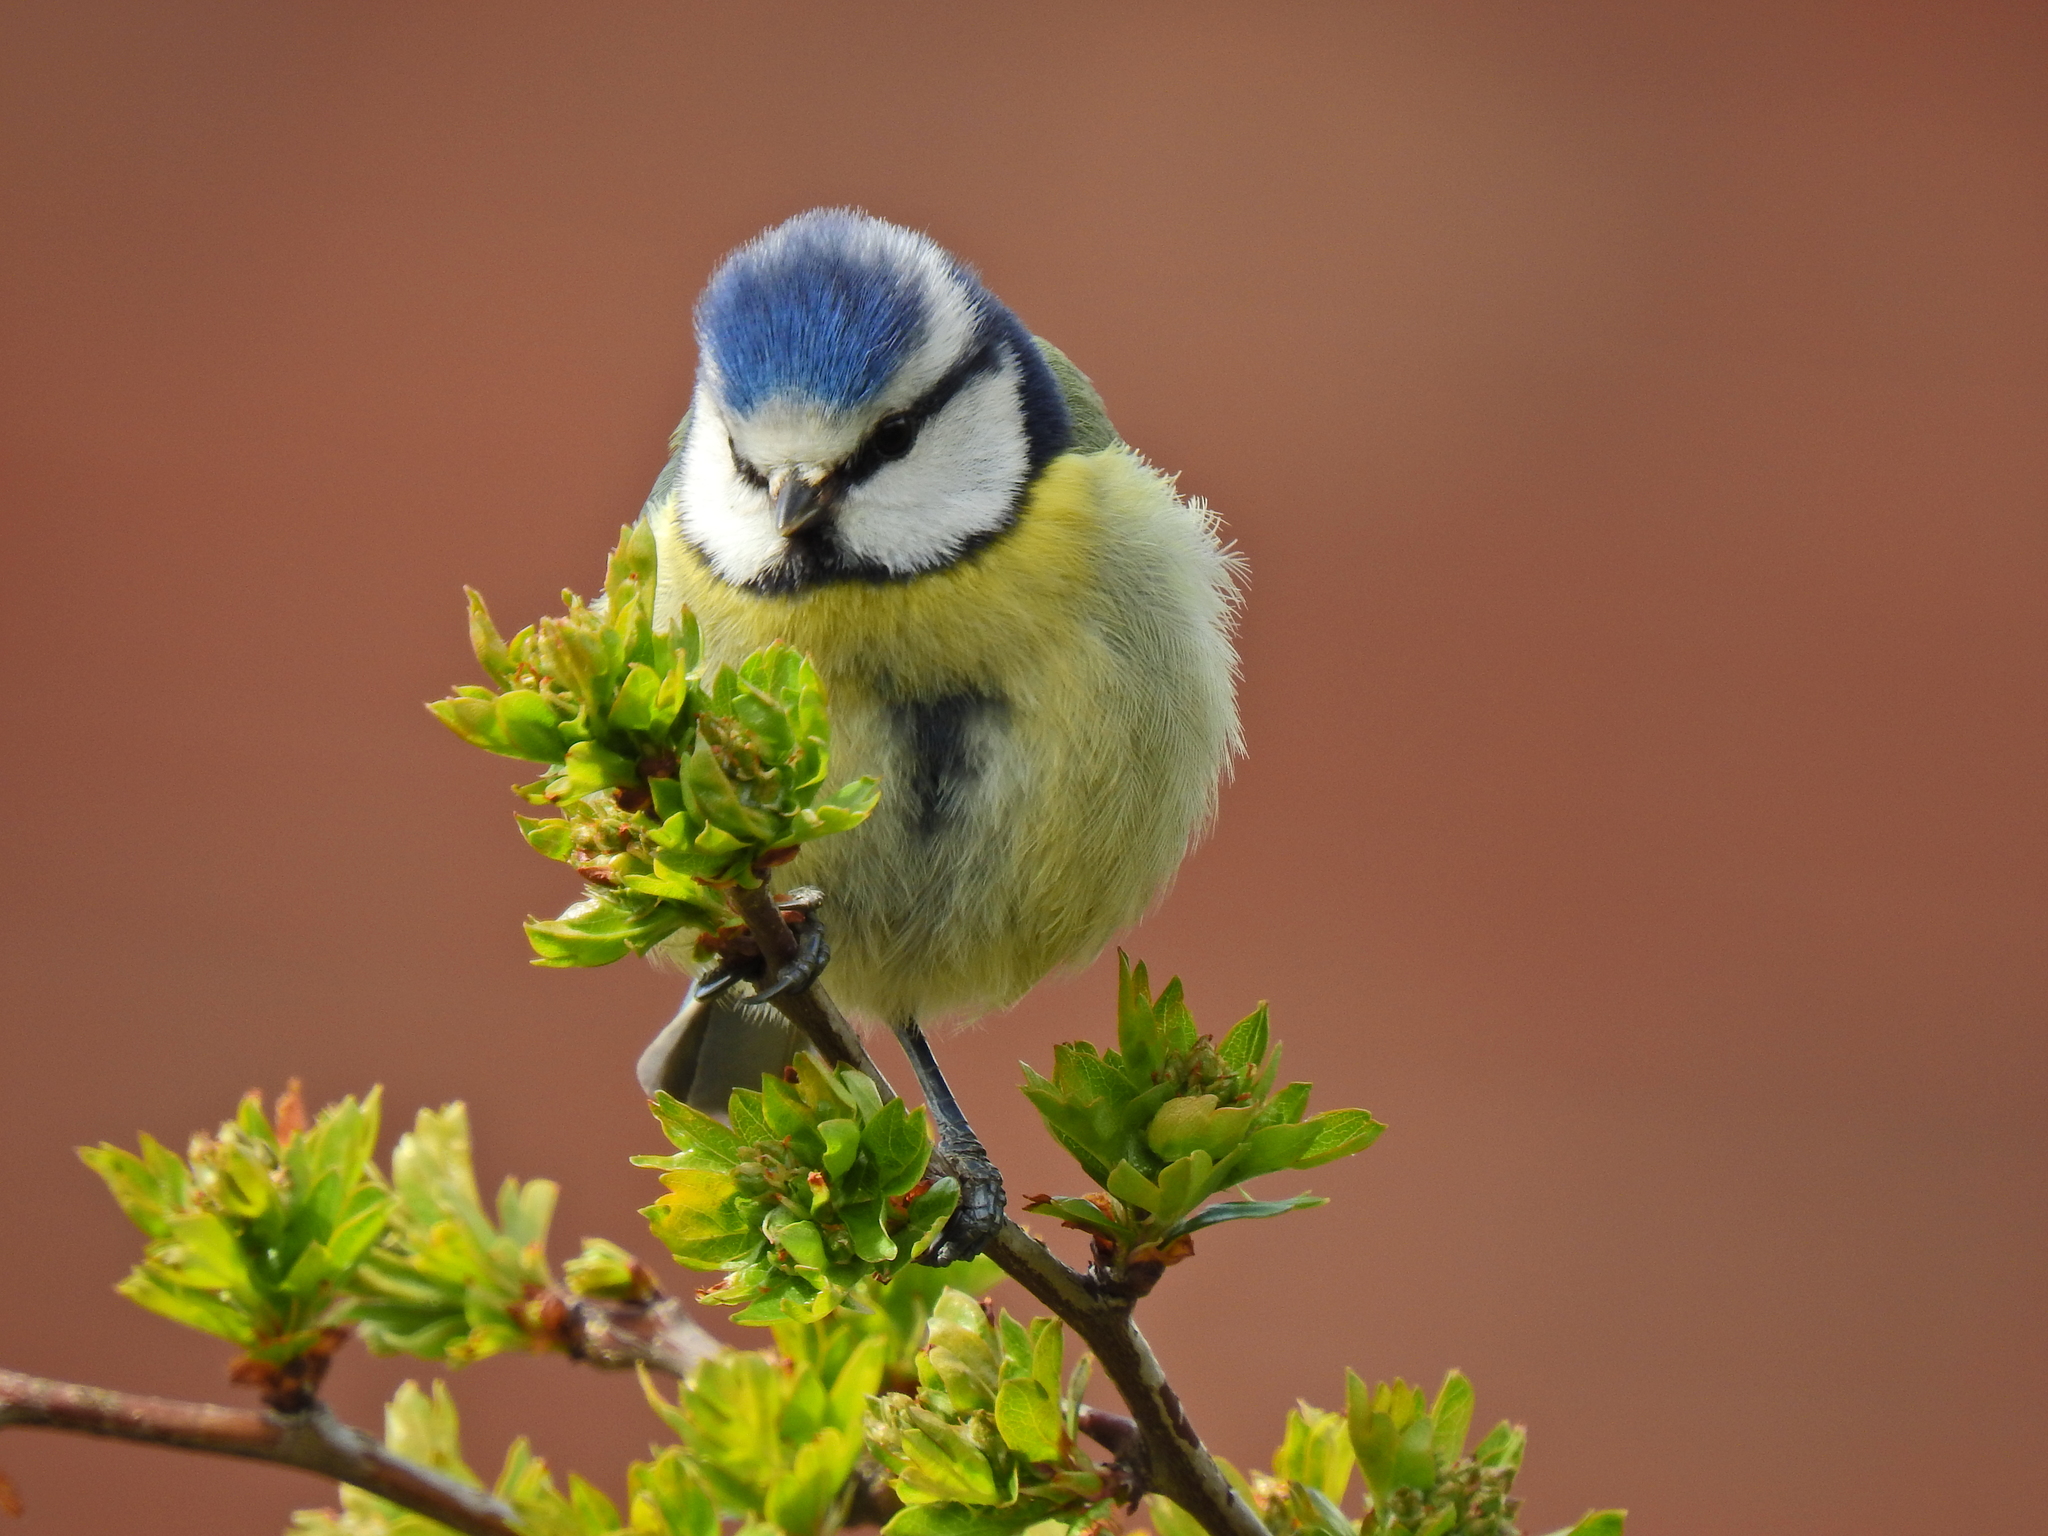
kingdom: Animalia
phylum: Chordata
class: Aves
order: Passeriformes
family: Paridae
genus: Cyanistes
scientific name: Cyanistes caeruleus
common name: Eurasian blue tit
